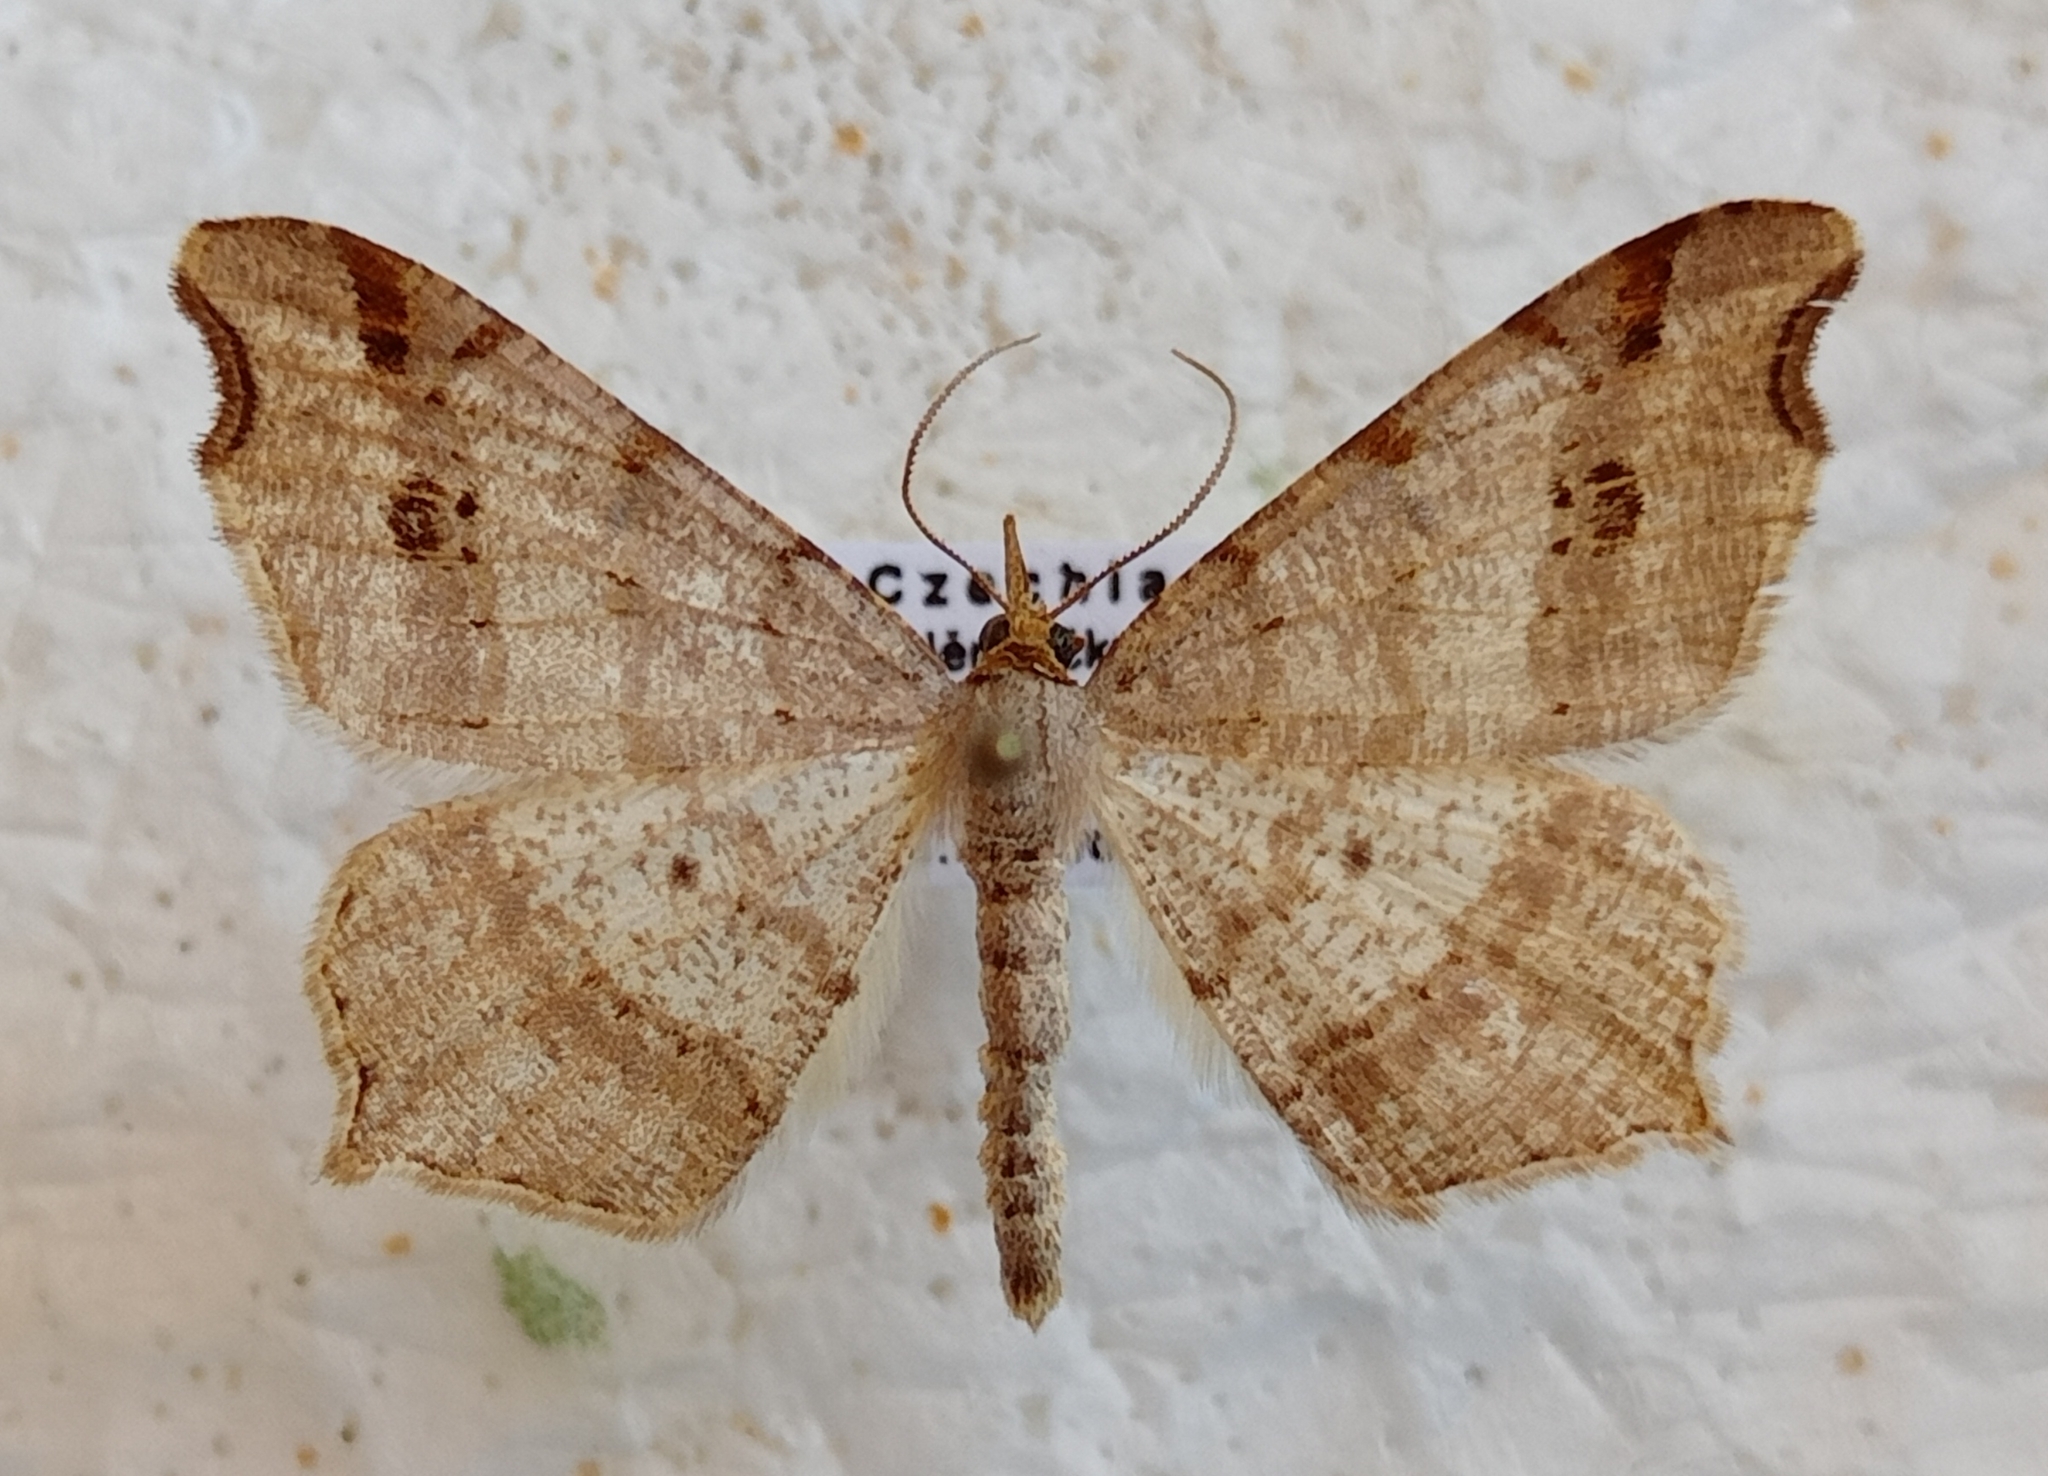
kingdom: Animalia
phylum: Arthropoda
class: Insecta
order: Lepidoptera
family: Geometridae
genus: Macaria
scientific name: Macaria alternata
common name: Sharp-angled peacock
